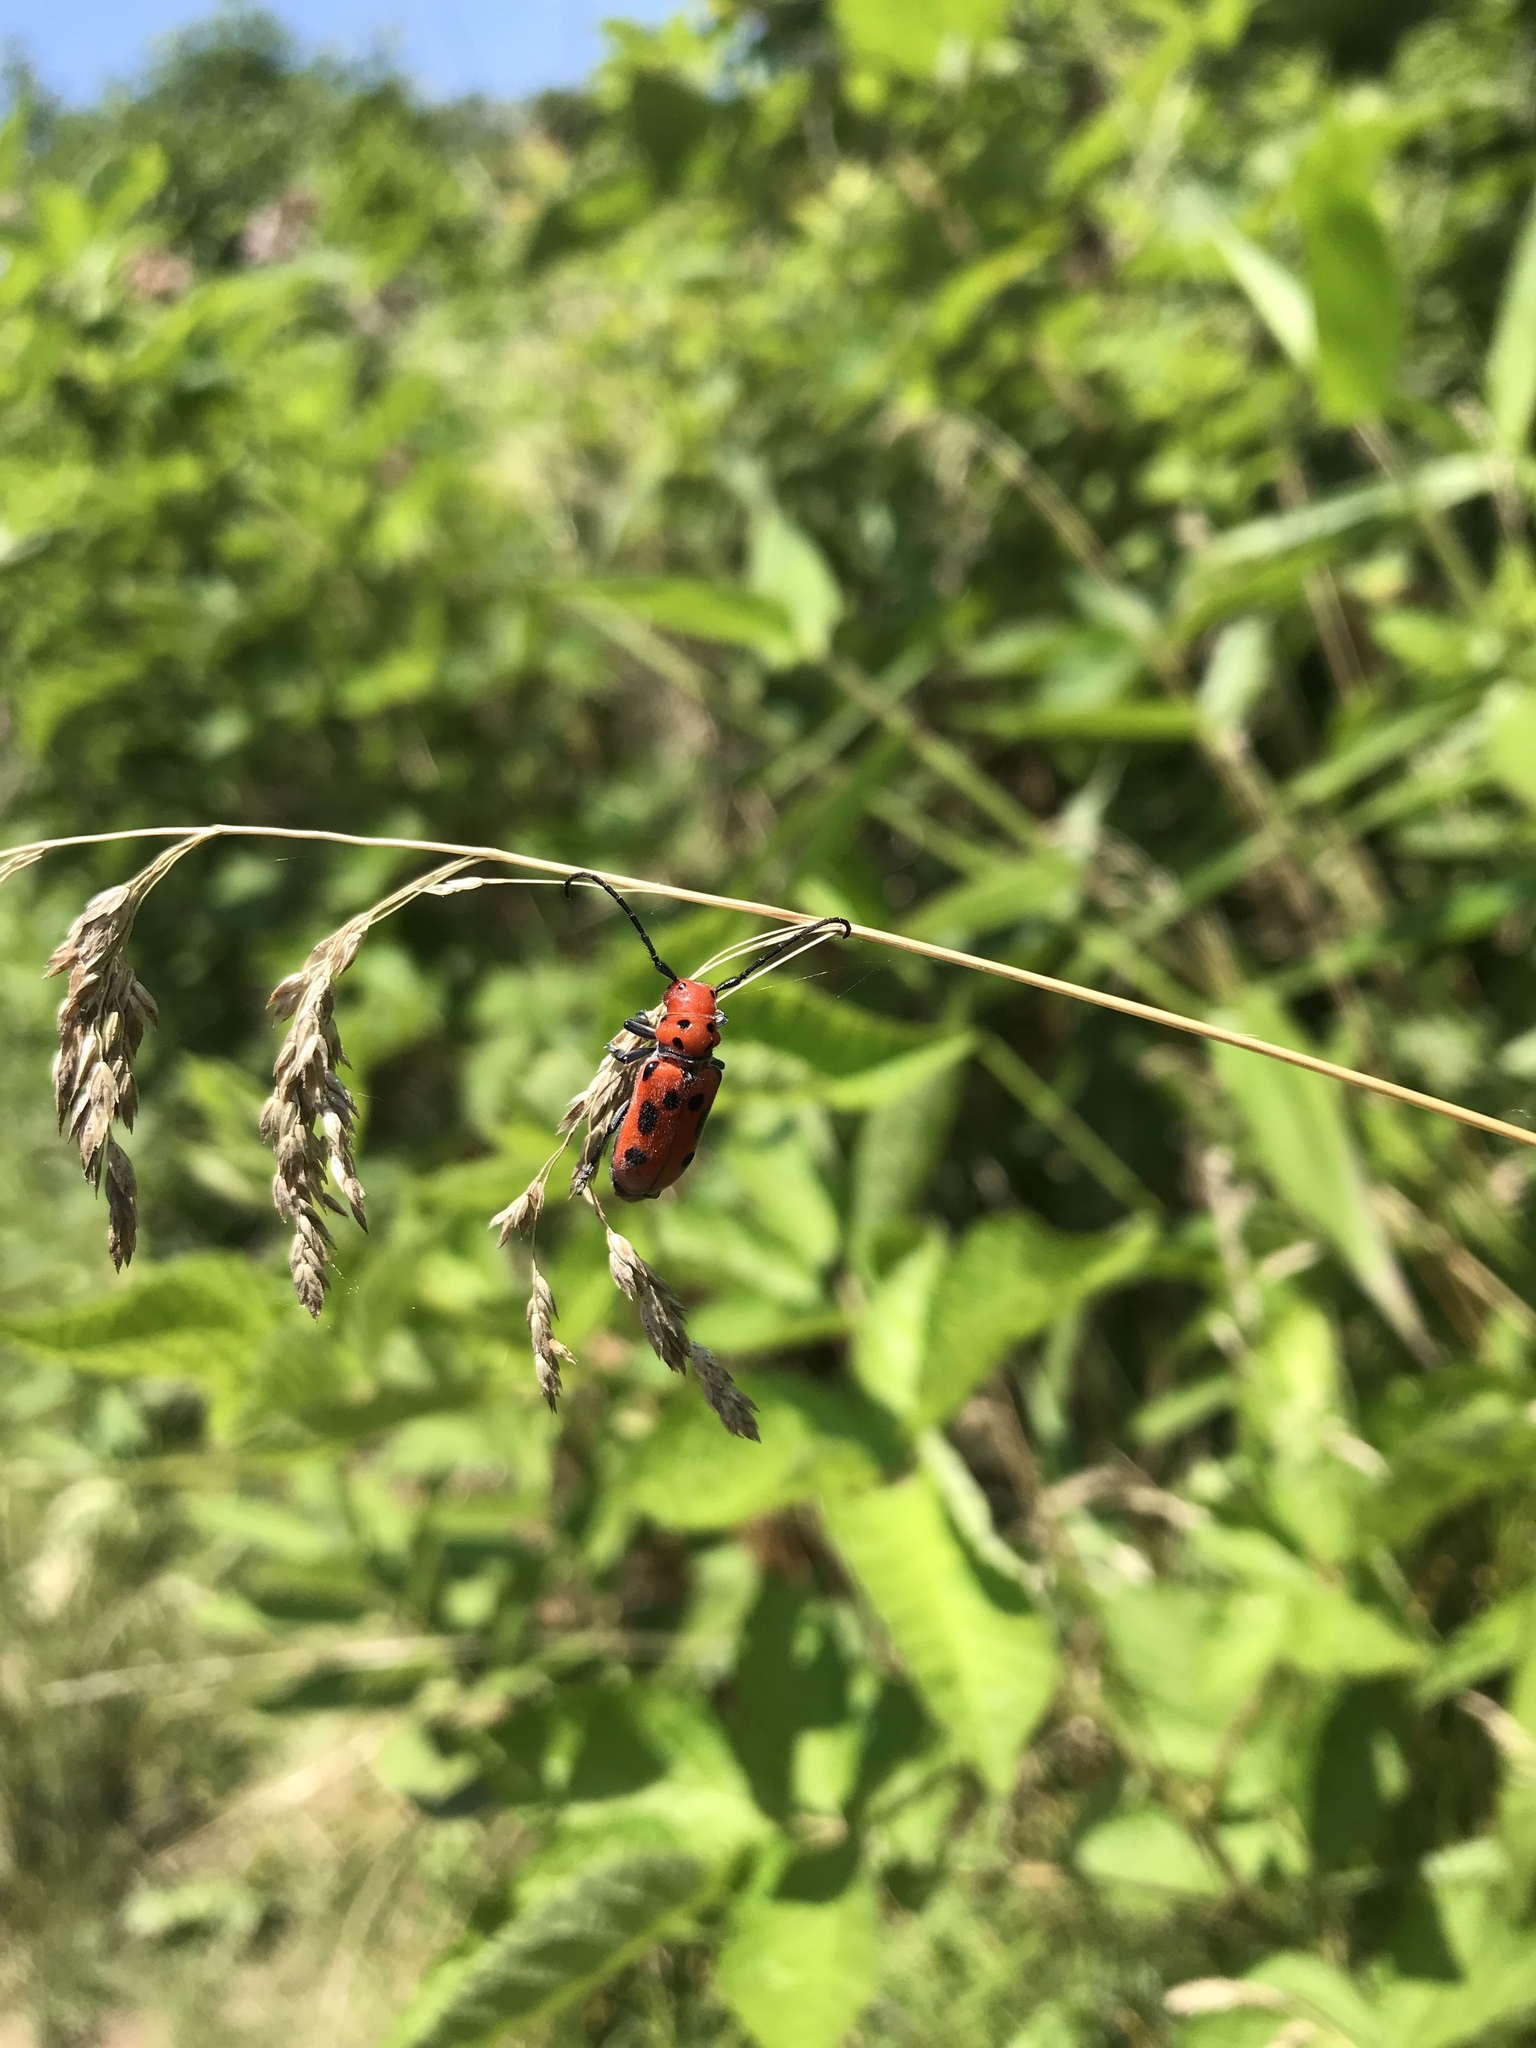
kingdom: Animalia
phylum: Arthropoda
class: Insecta
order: Coleoptera
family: Cerambycidae
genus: Tetraopes
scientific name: Tetraopes tetrophthalmus
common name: Red milkweed beetle
